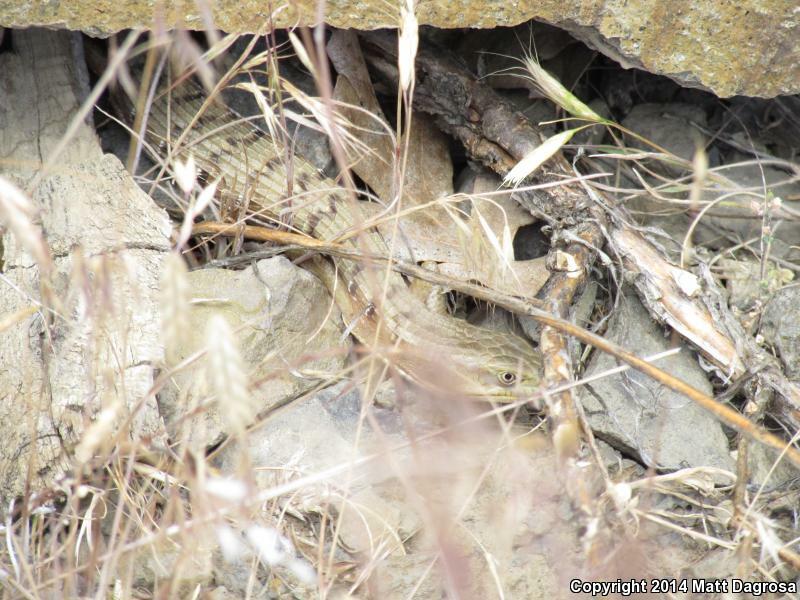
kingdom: Animalia
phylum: Chordata
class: Squamata
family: Anguidae
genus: Elgaria
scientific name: Elgaria multicarinata
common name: Southern alligator lizard
